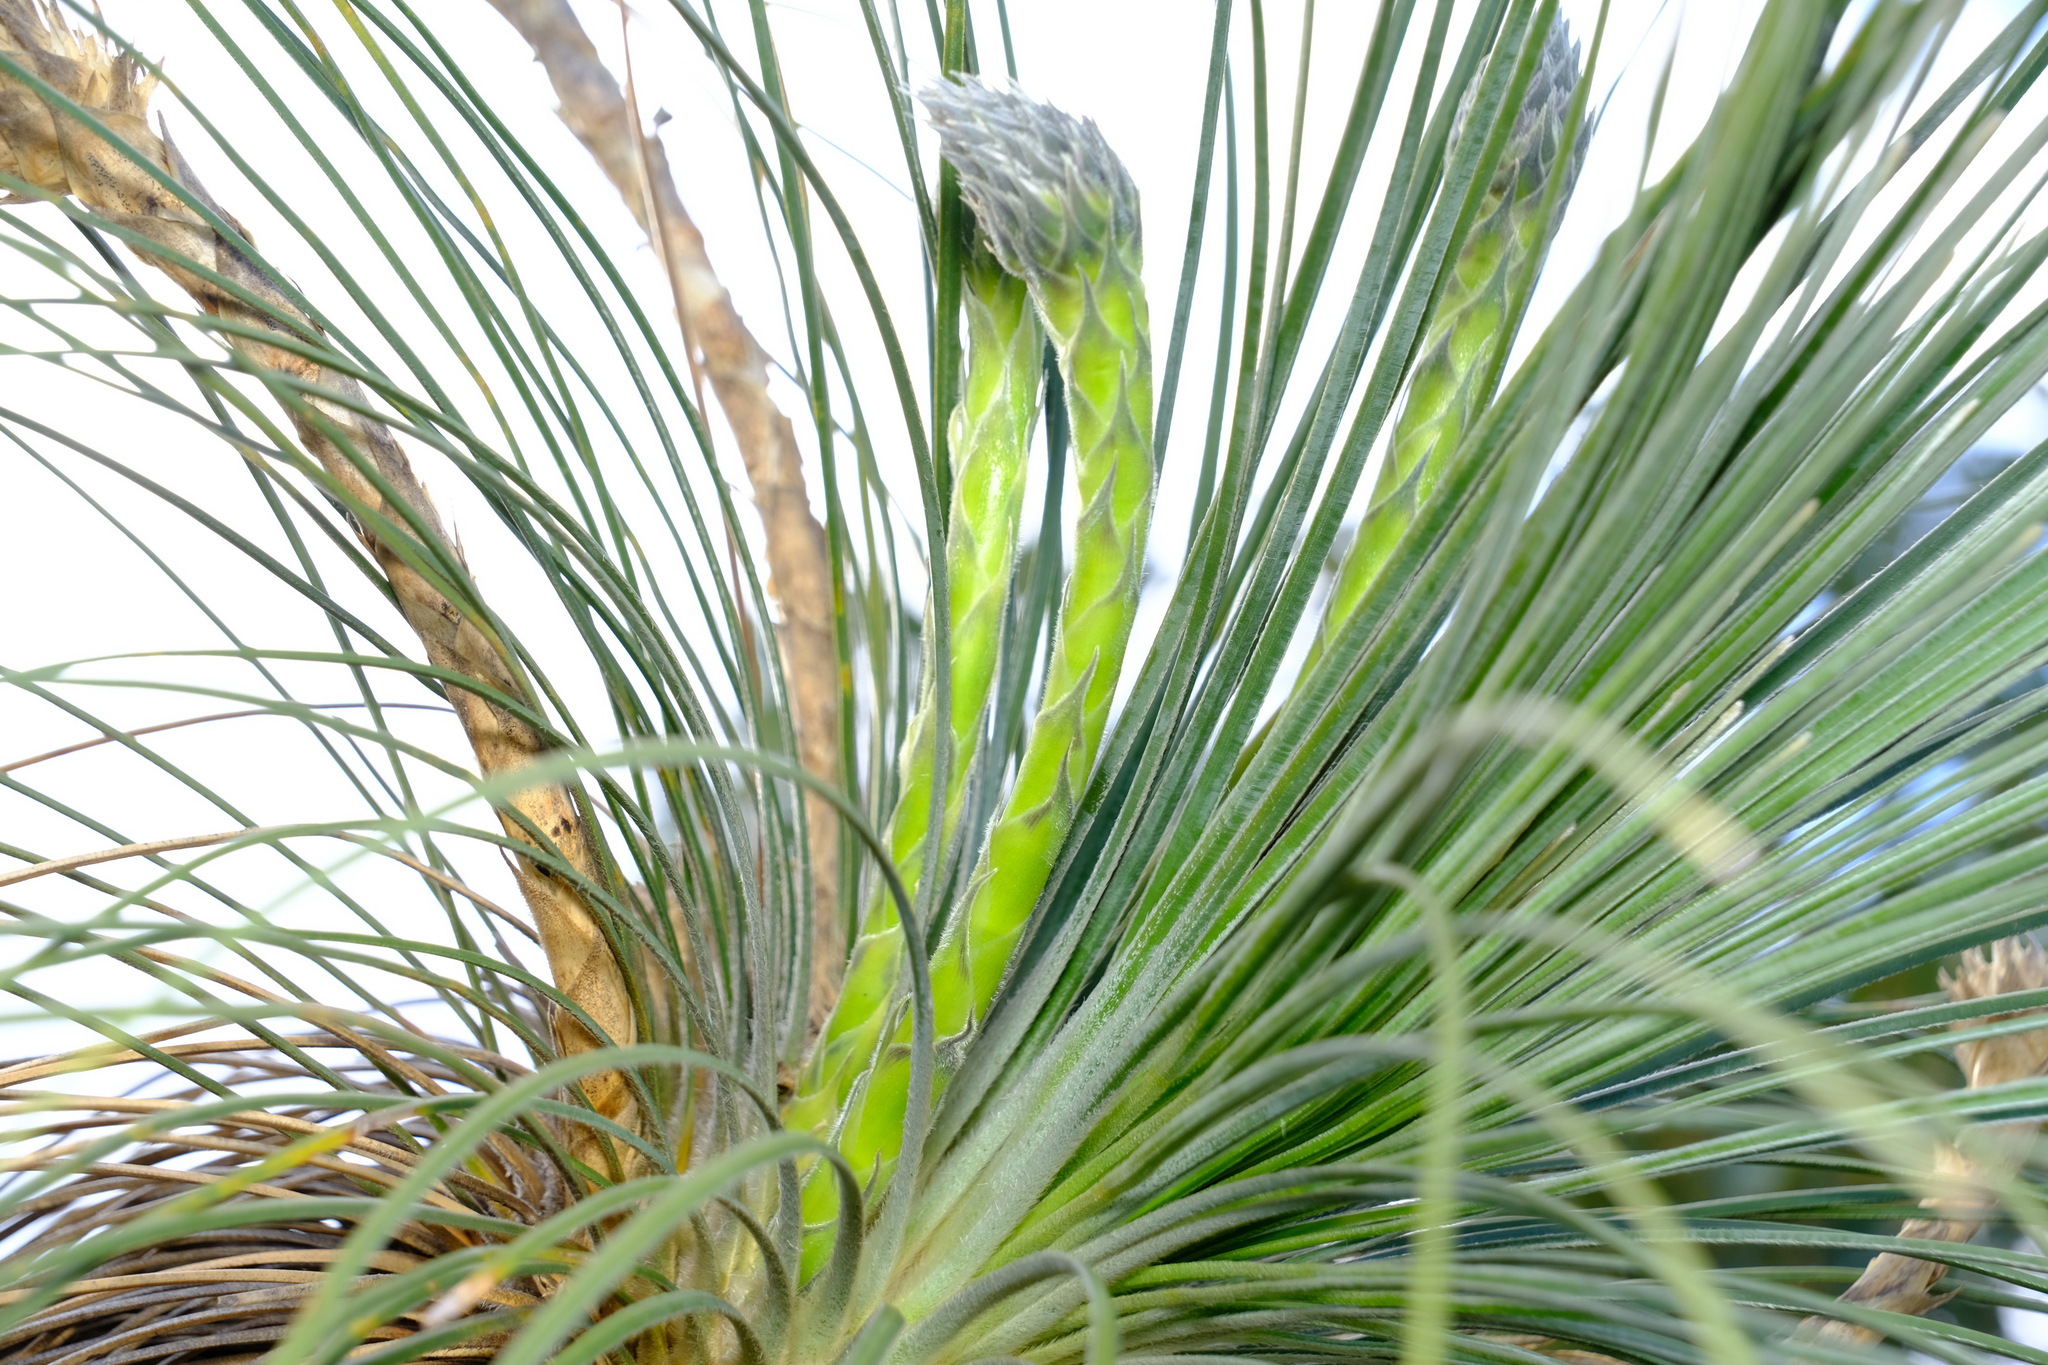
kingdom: Plantae
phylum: Tracheophyta
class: Liliopsida
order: Arecales
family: Dasypogonaceae
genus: Kingia
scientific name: Kingia australis
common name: Black gin
